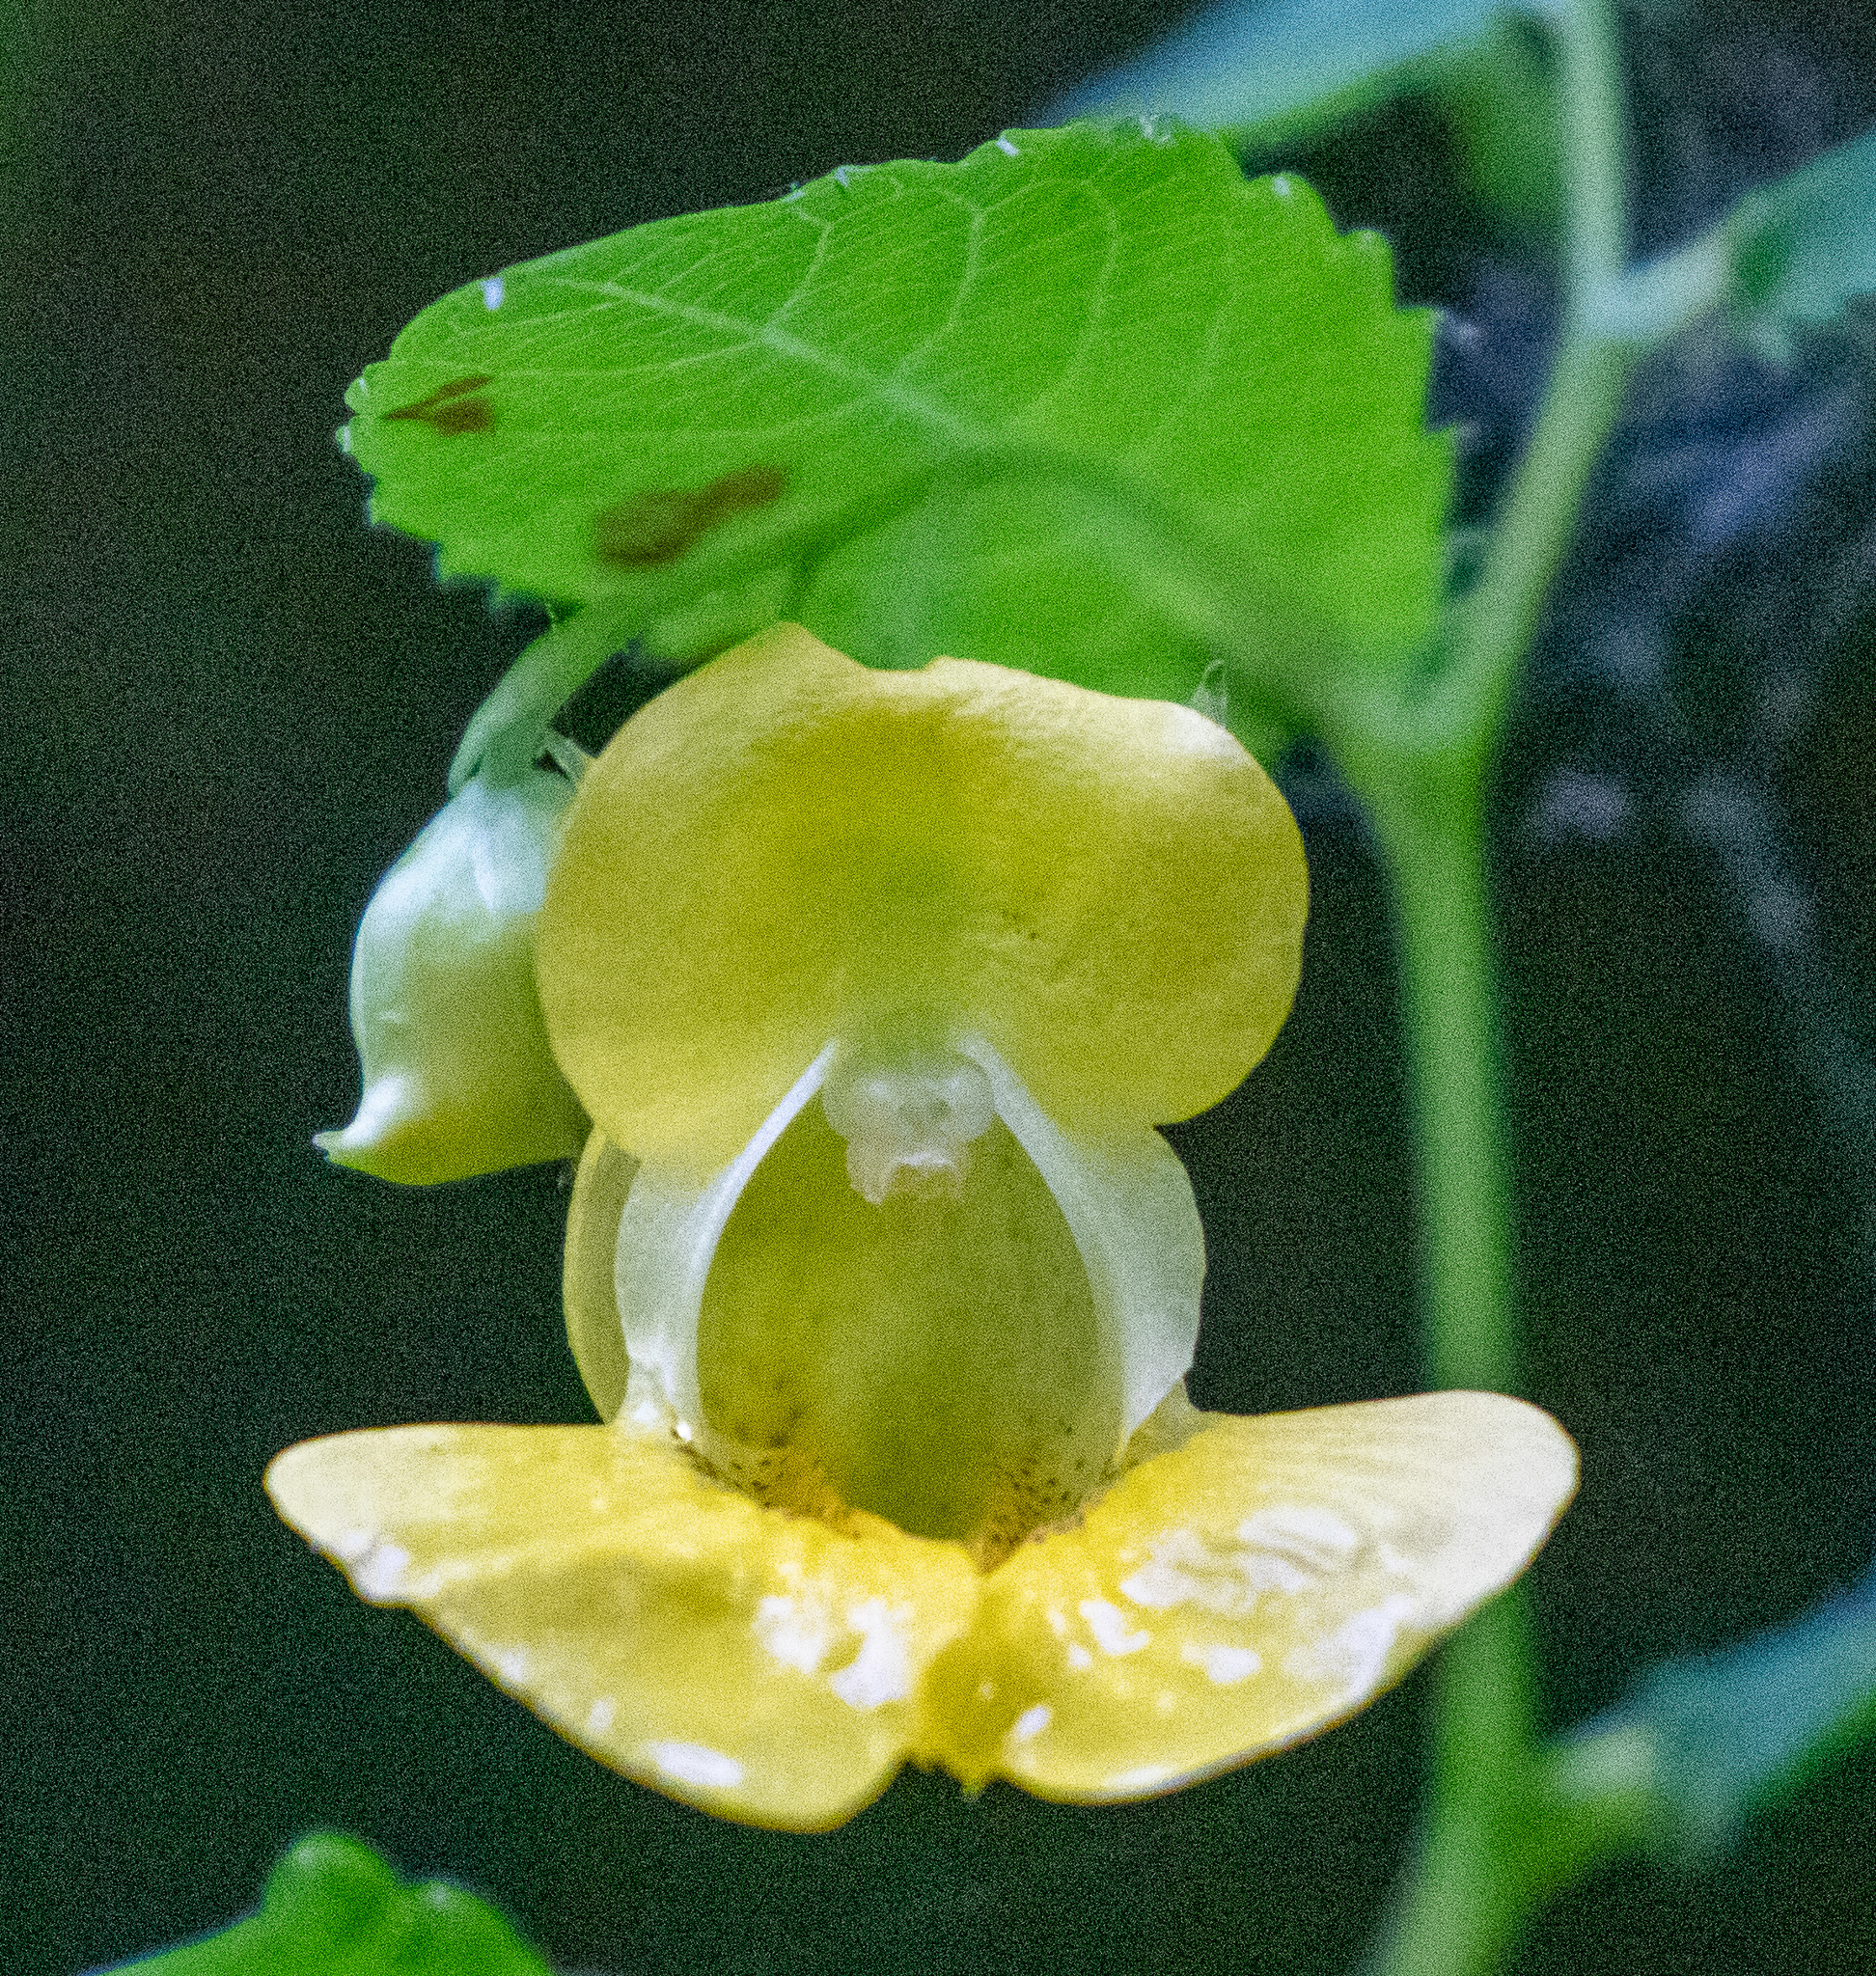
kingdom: Plantae
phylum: Tracheophyta
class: Magnoliopsida
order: Ericales
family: Balsaminaceae
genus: Impatiens
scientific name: Impatiens pallida
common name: Pale snapweed
